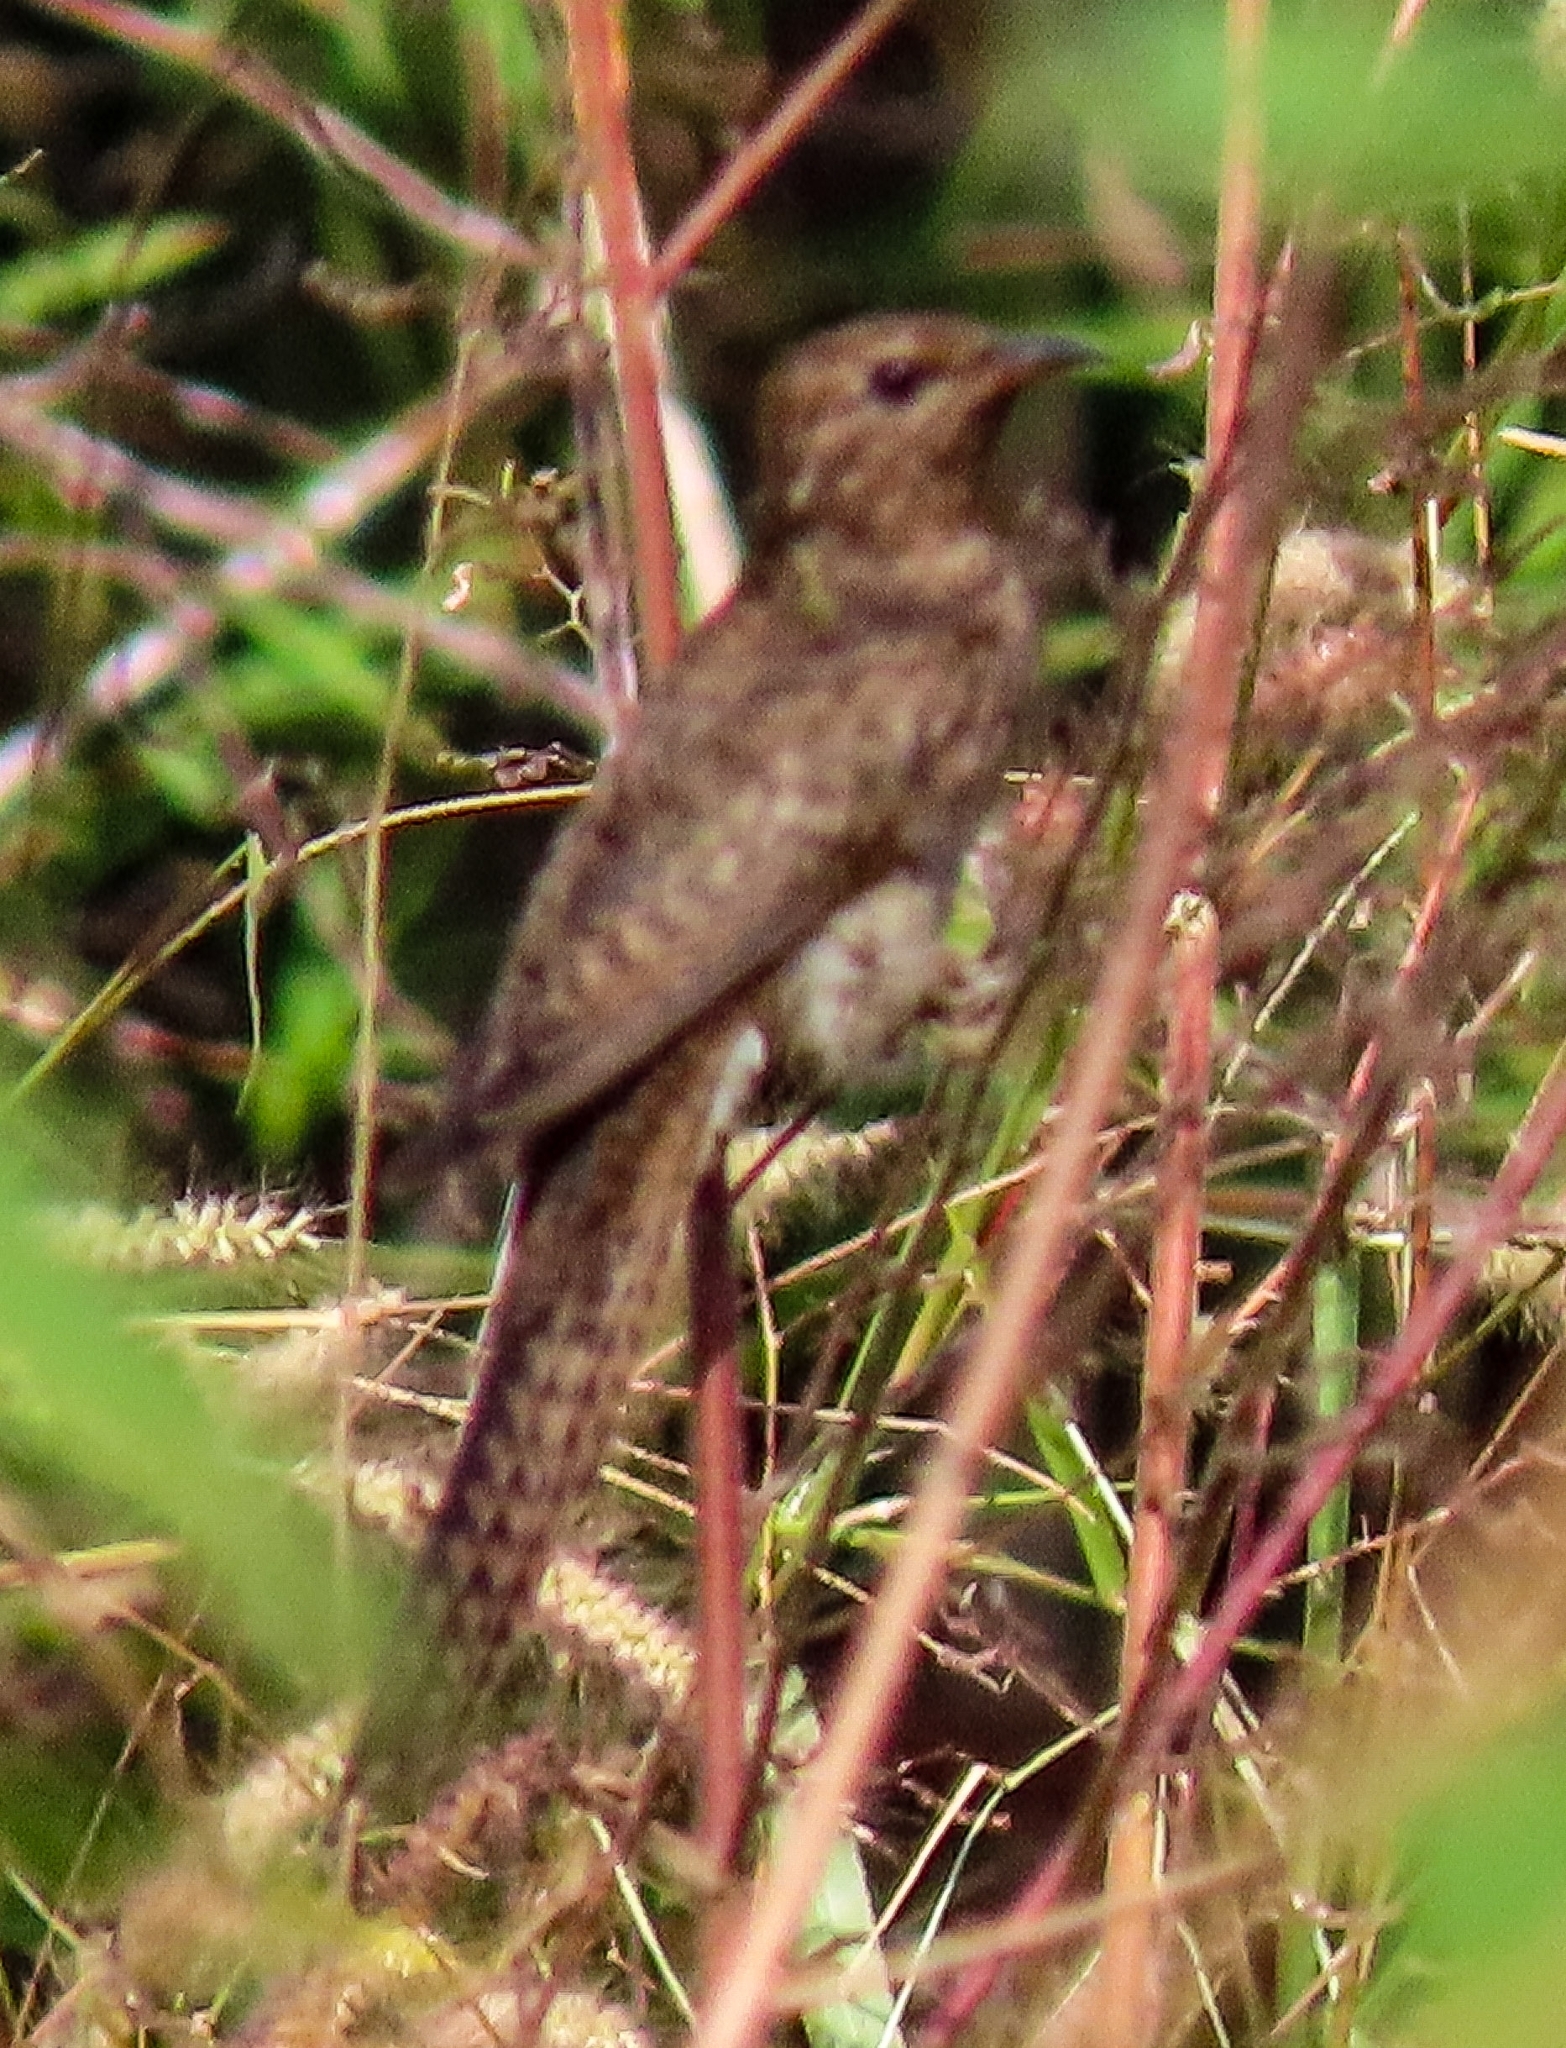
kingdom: Animalia
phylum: Chordata
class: Aves
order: Cuculiformes
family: Cuculidae
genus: Cacomantis
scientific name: Cacomantis merulinus
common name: Plaintive cuckoo
